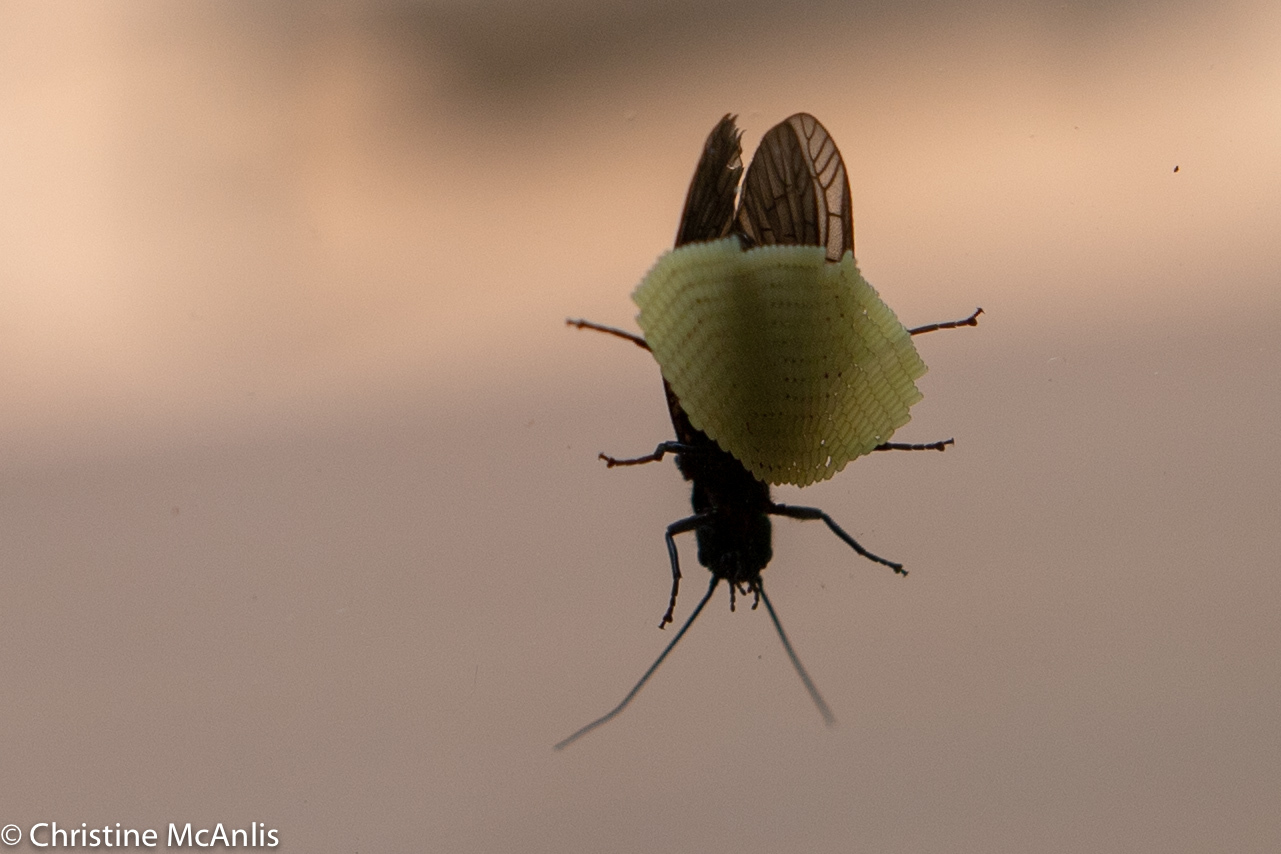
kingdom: Animalia
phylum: Arthropoda
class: Insecta
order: Megaloptera
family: Sialidae
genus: Sialis
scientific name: Sialis
